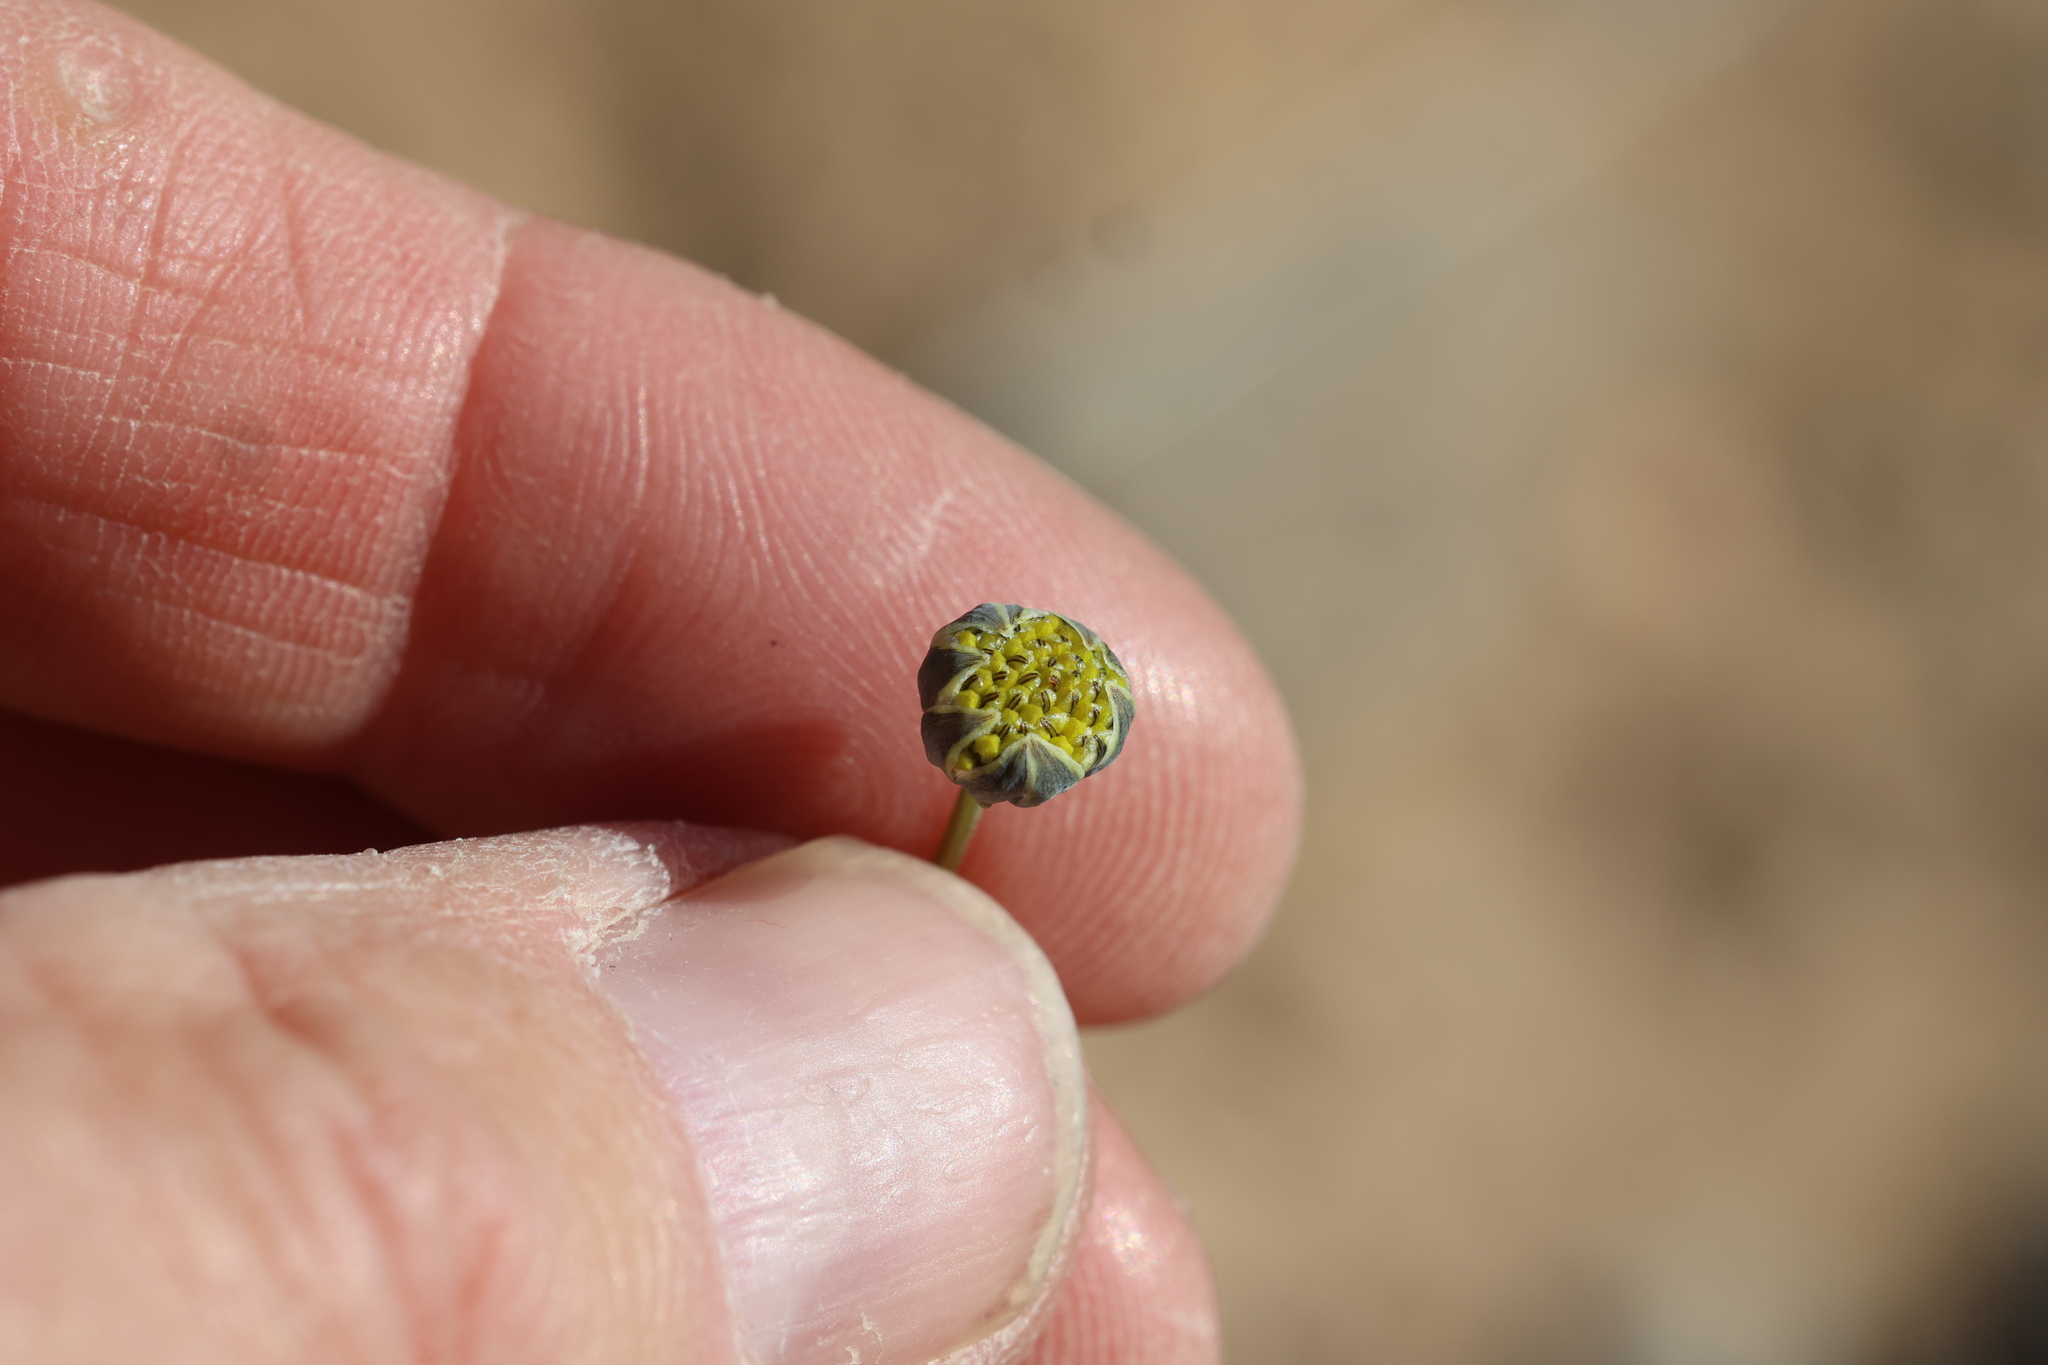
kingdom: Plantae
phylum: Tracheophyta
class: Magnoliopsida
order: Asterales
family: Asteraceae
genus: Thelesperma
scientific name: Thelesperma megapotamicum
